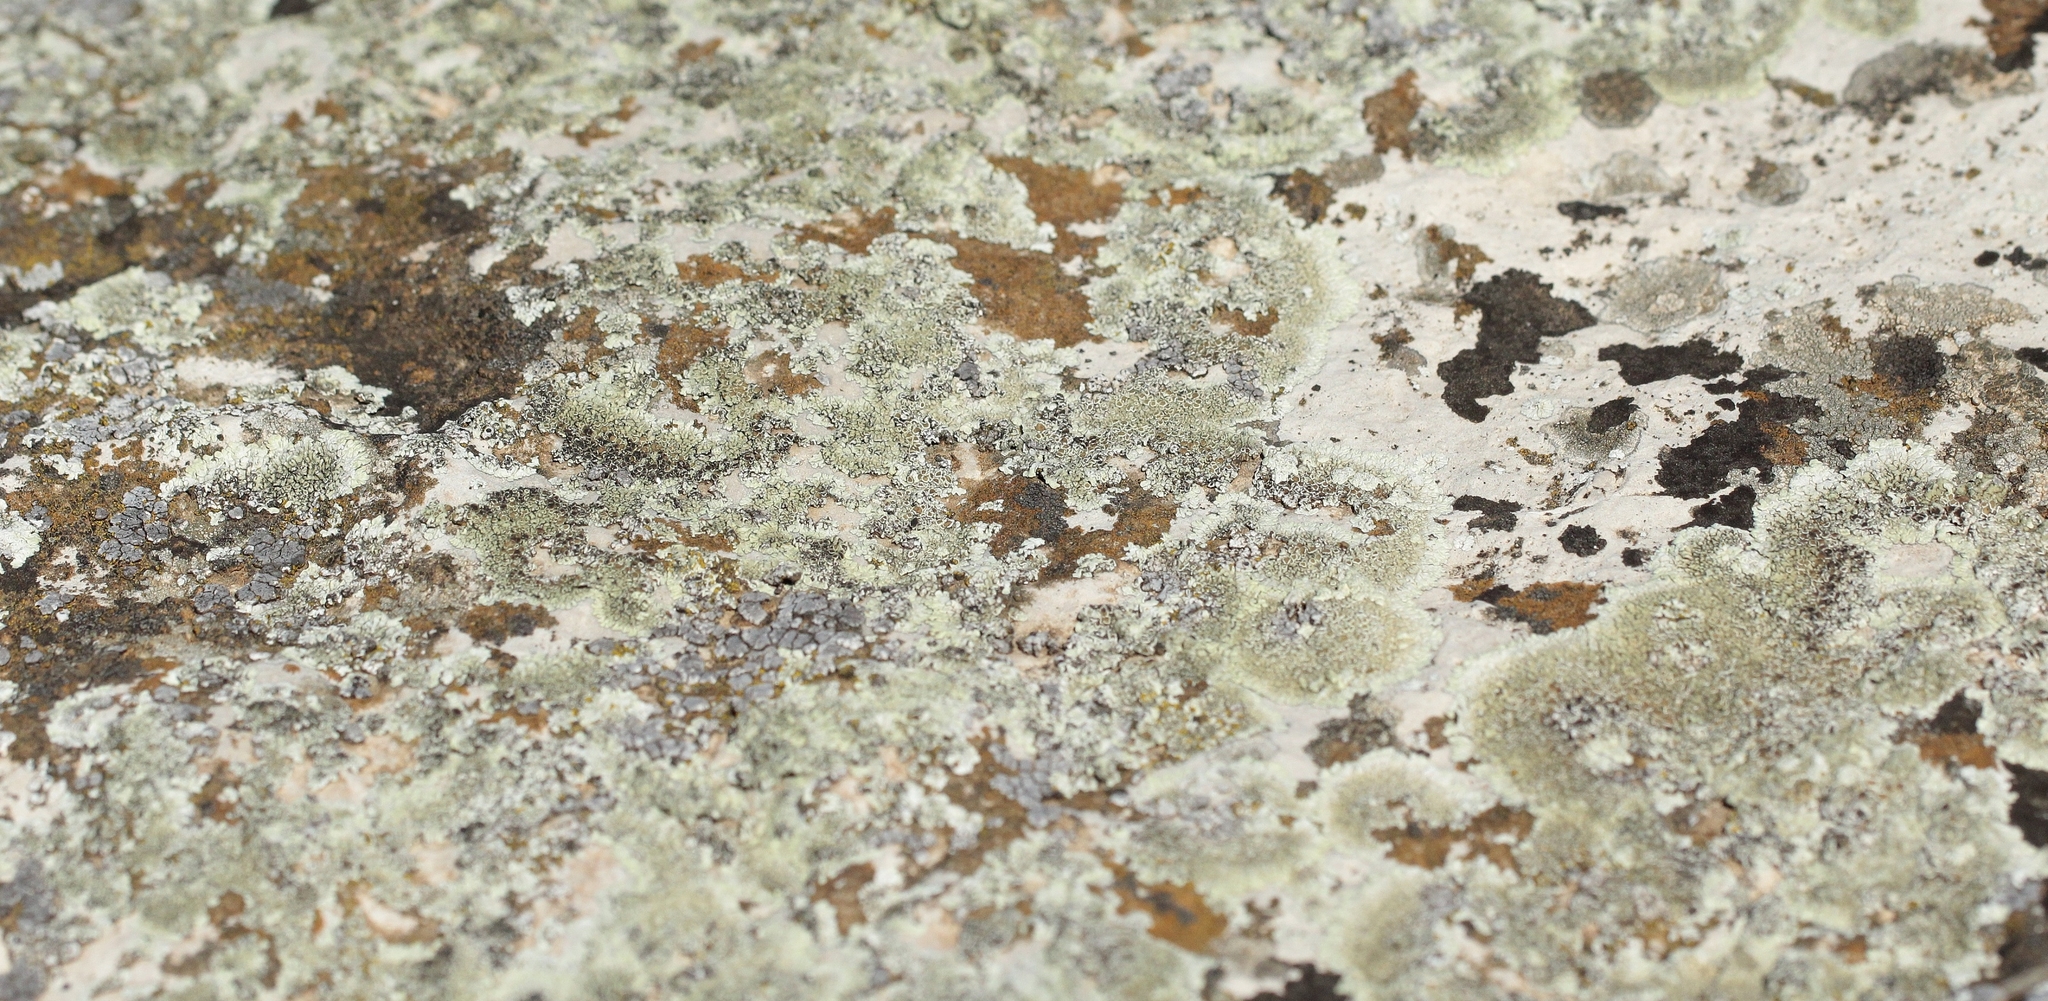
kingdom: Fungi
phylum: Ascomycota
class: Lecanoromycetes
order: Lecanorales
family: Lecanoraceae
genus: Protoparmeliopsis
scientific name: Protoparmeliopsis muralis
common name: Stonewall rim lichen
